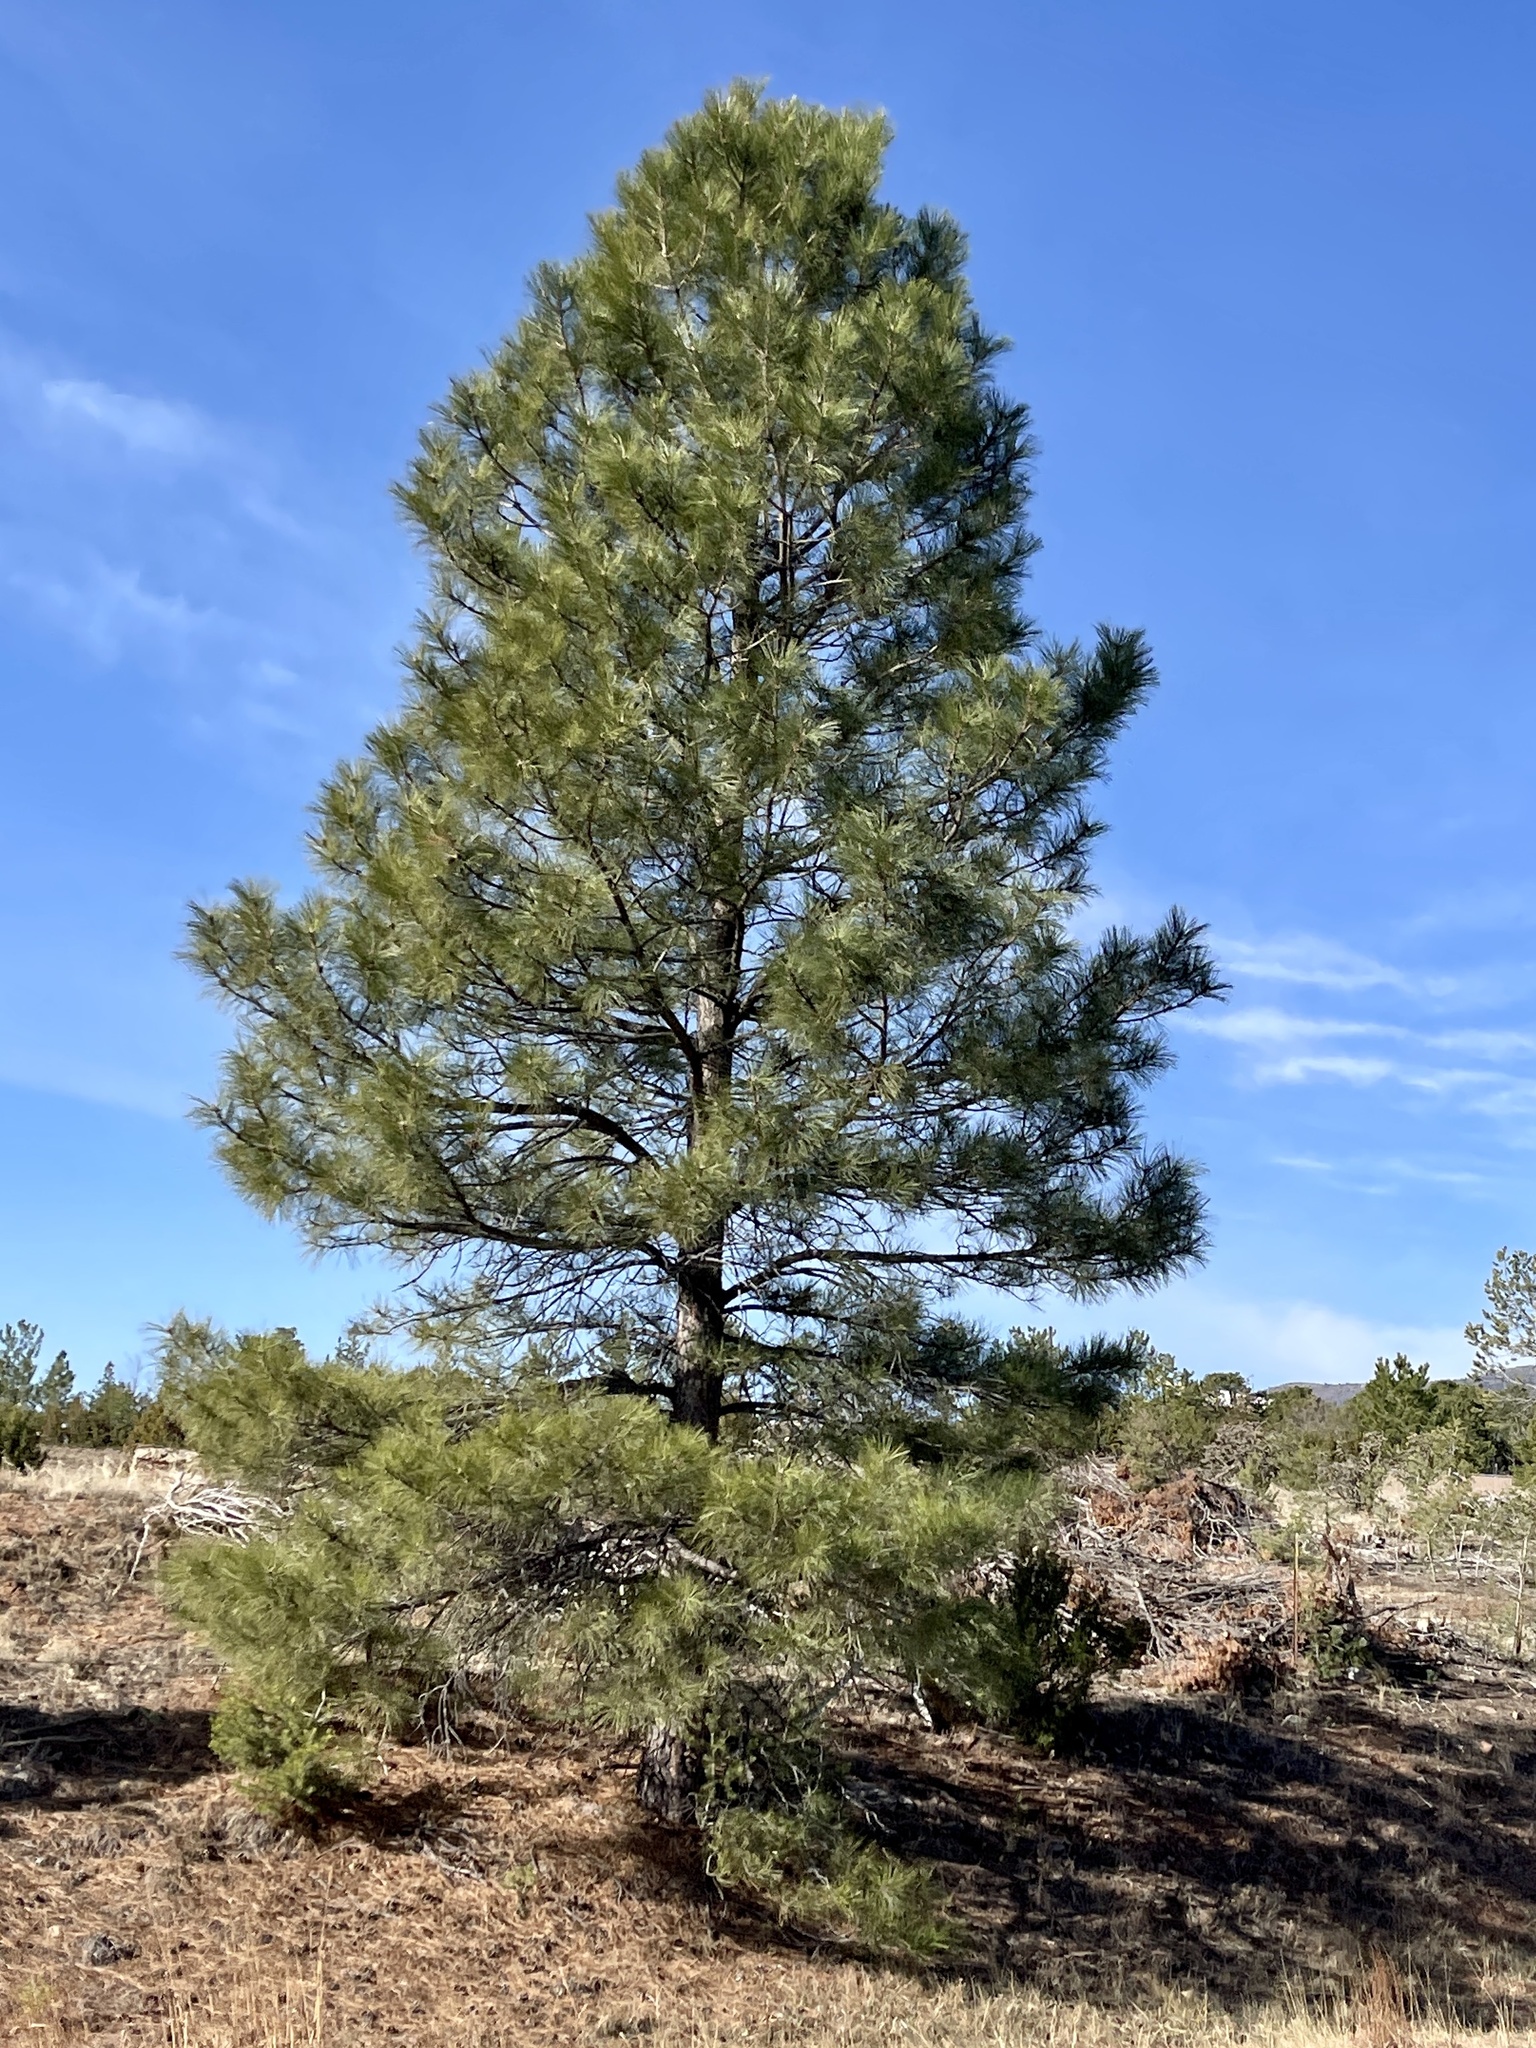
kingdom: Plantae
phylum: Tracheophyta
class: Pinopsida
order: Pinales
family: Pinaceae
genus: Pinus
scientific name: Pinus ponderosa
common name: Western yellow-pine
